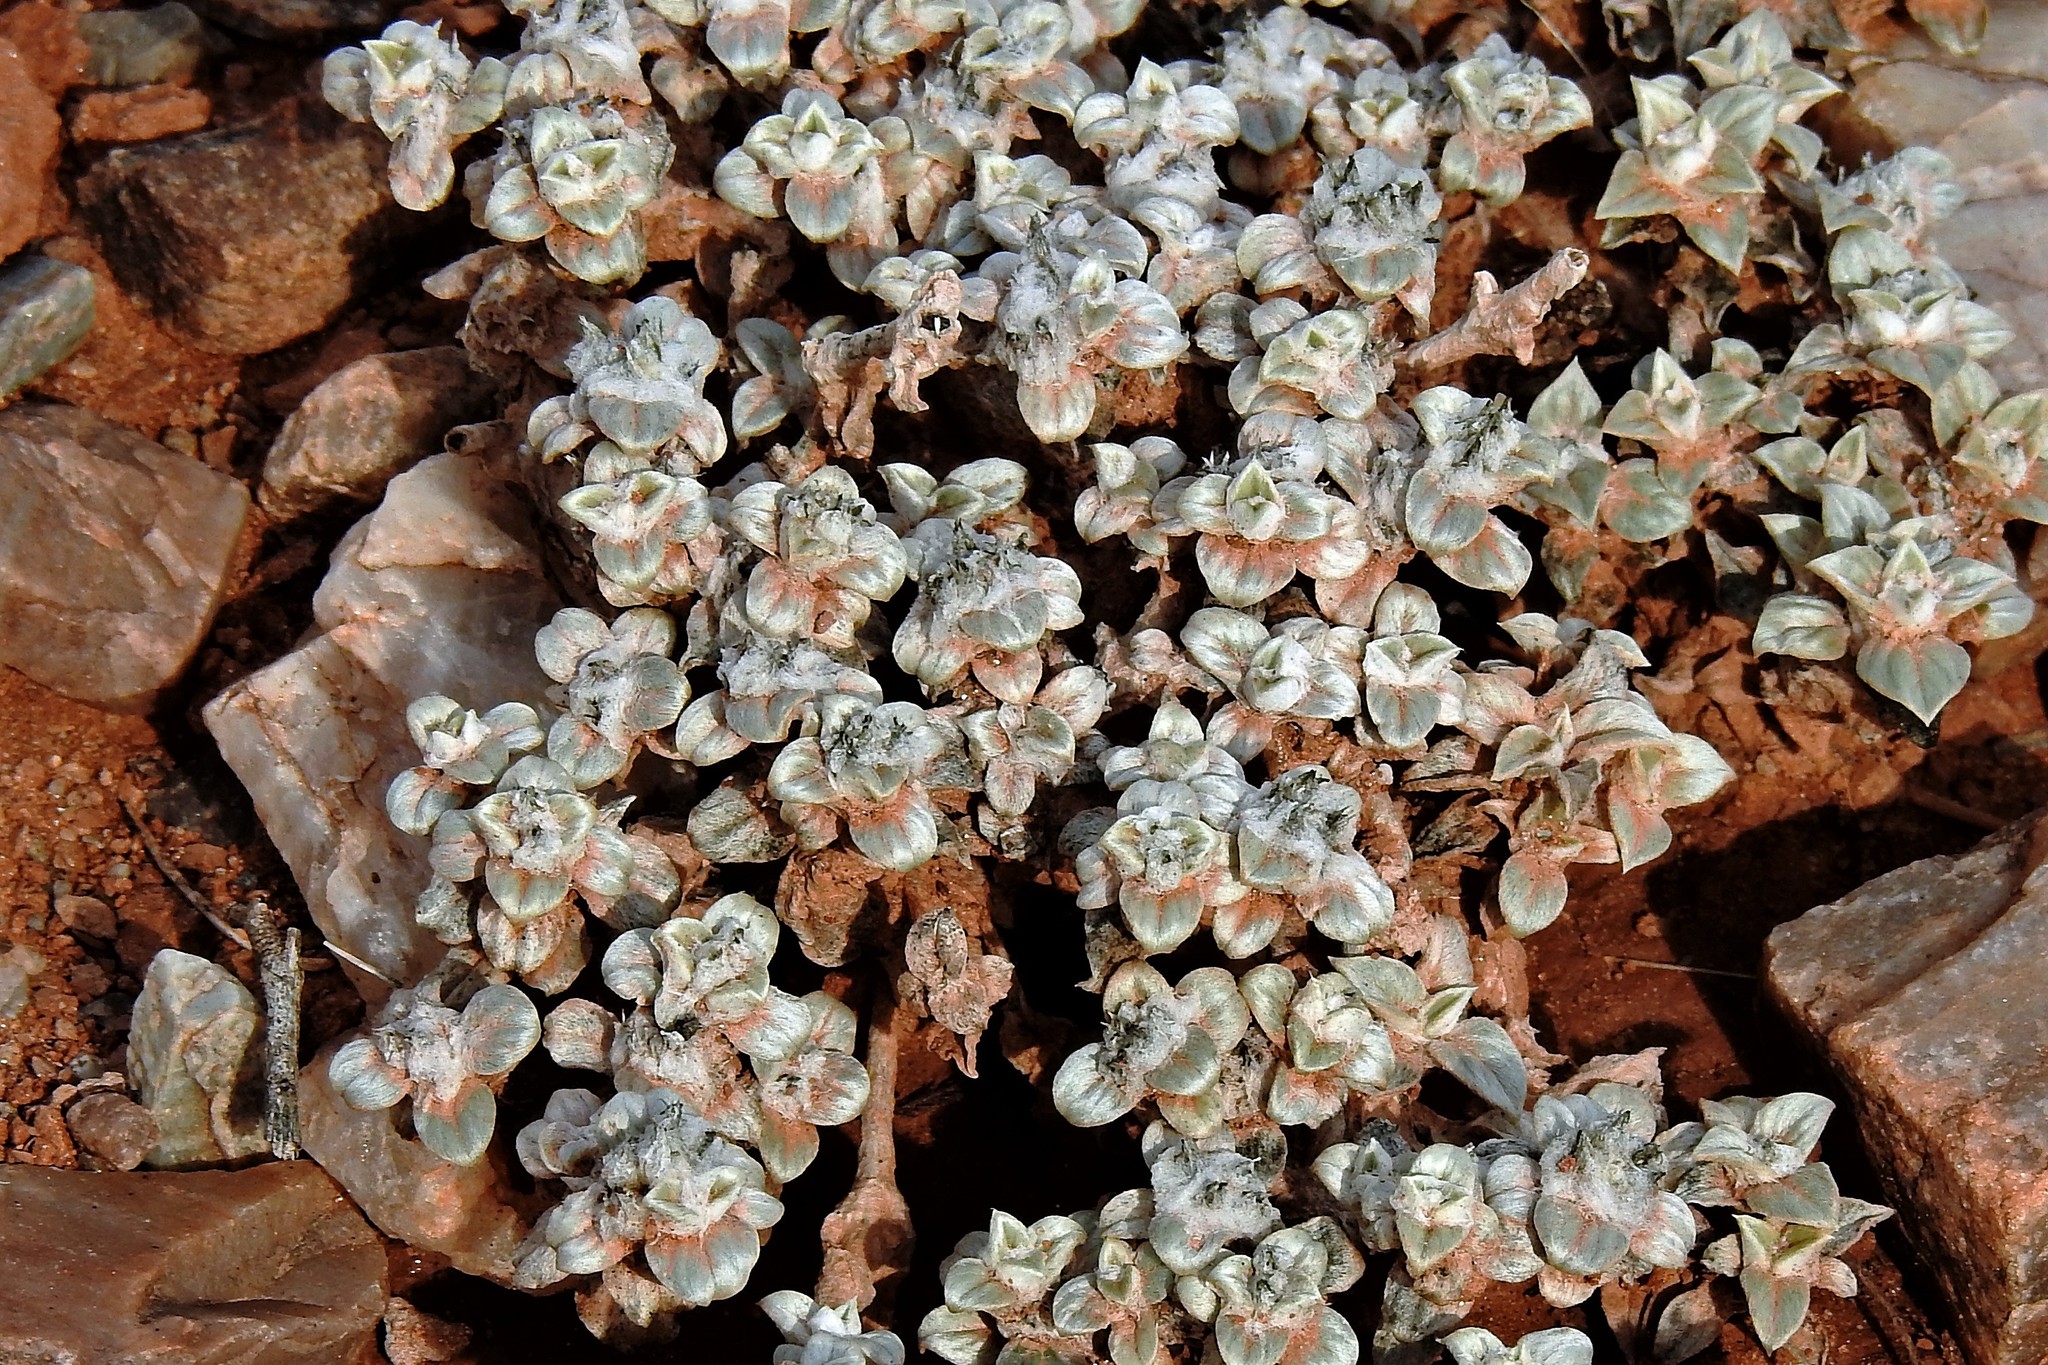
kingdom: Plantae
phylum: Tracheophyta
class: Magnoliopsida
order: Caryophyllales
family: Amaranthaceae
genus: Gomphrena
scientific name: Gomphrena colosacana
